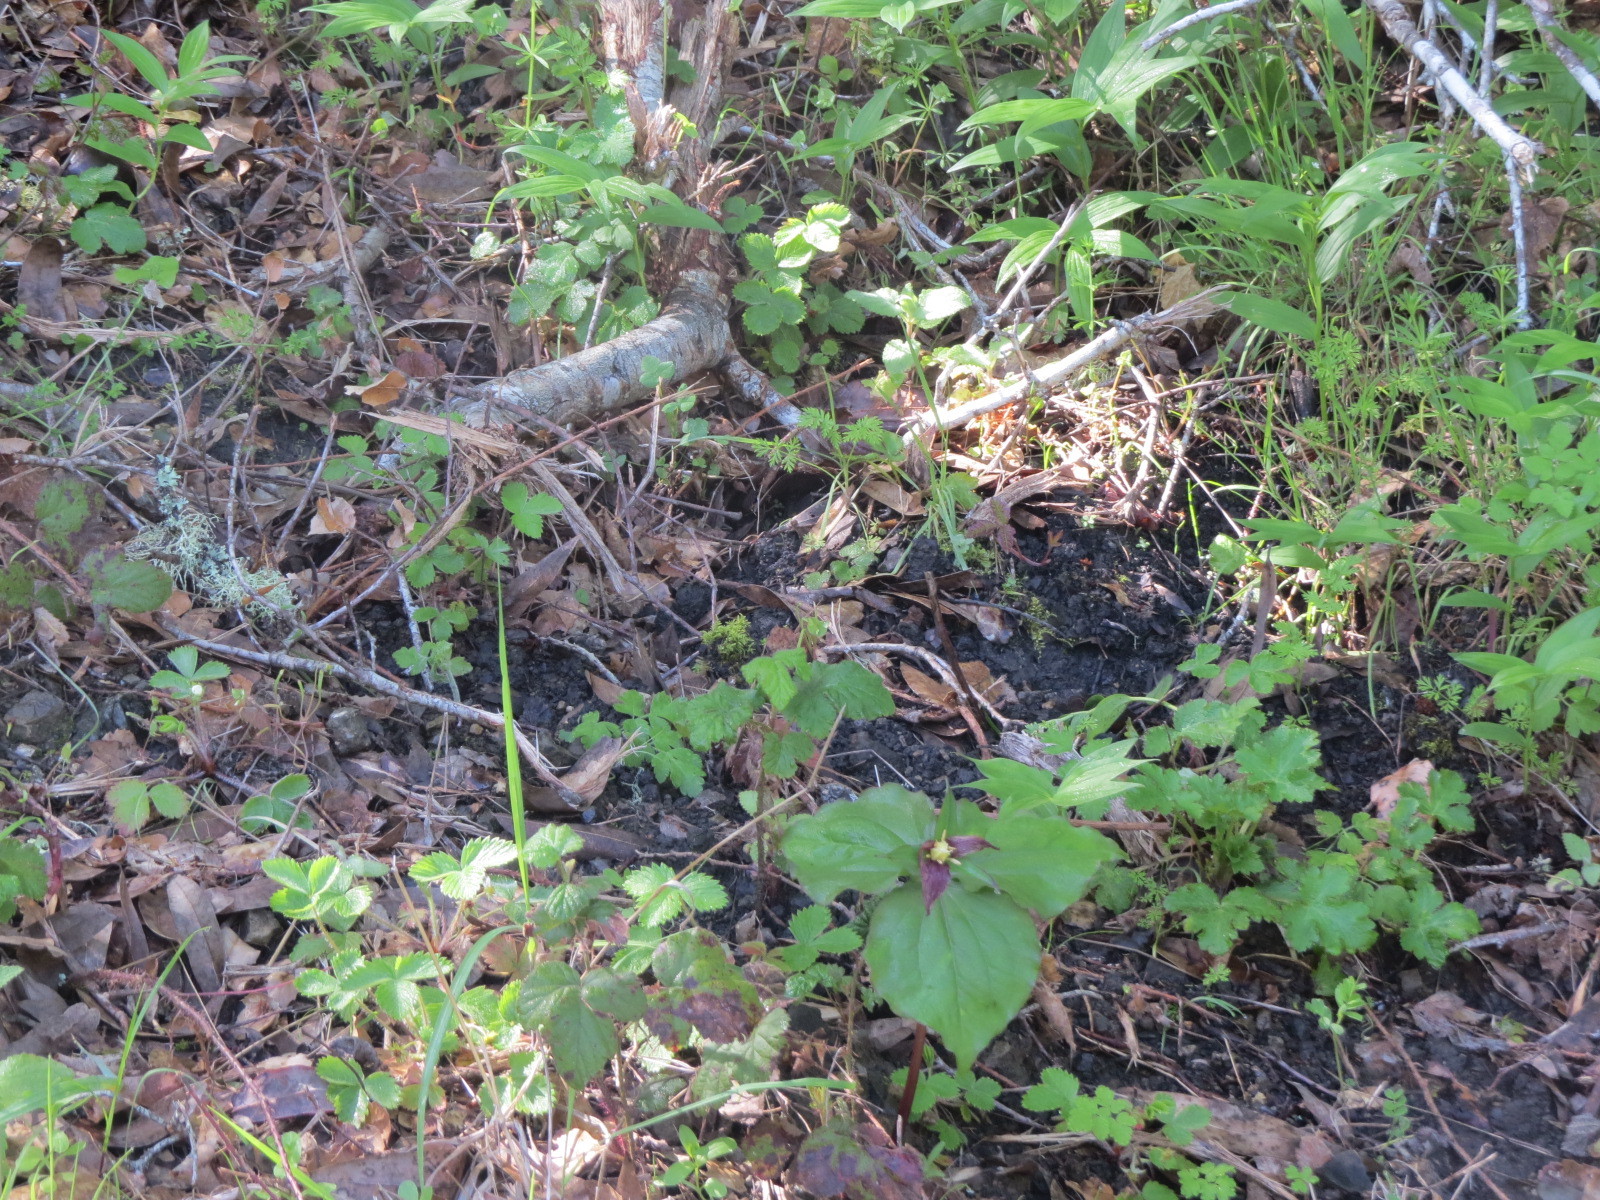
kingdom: Plantae
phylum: Tracheophyta
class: Liliopsida
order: Liliales
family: Melanthiaceae
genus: Trillium
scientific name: Trillium ovatum
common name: Pacific trillium
